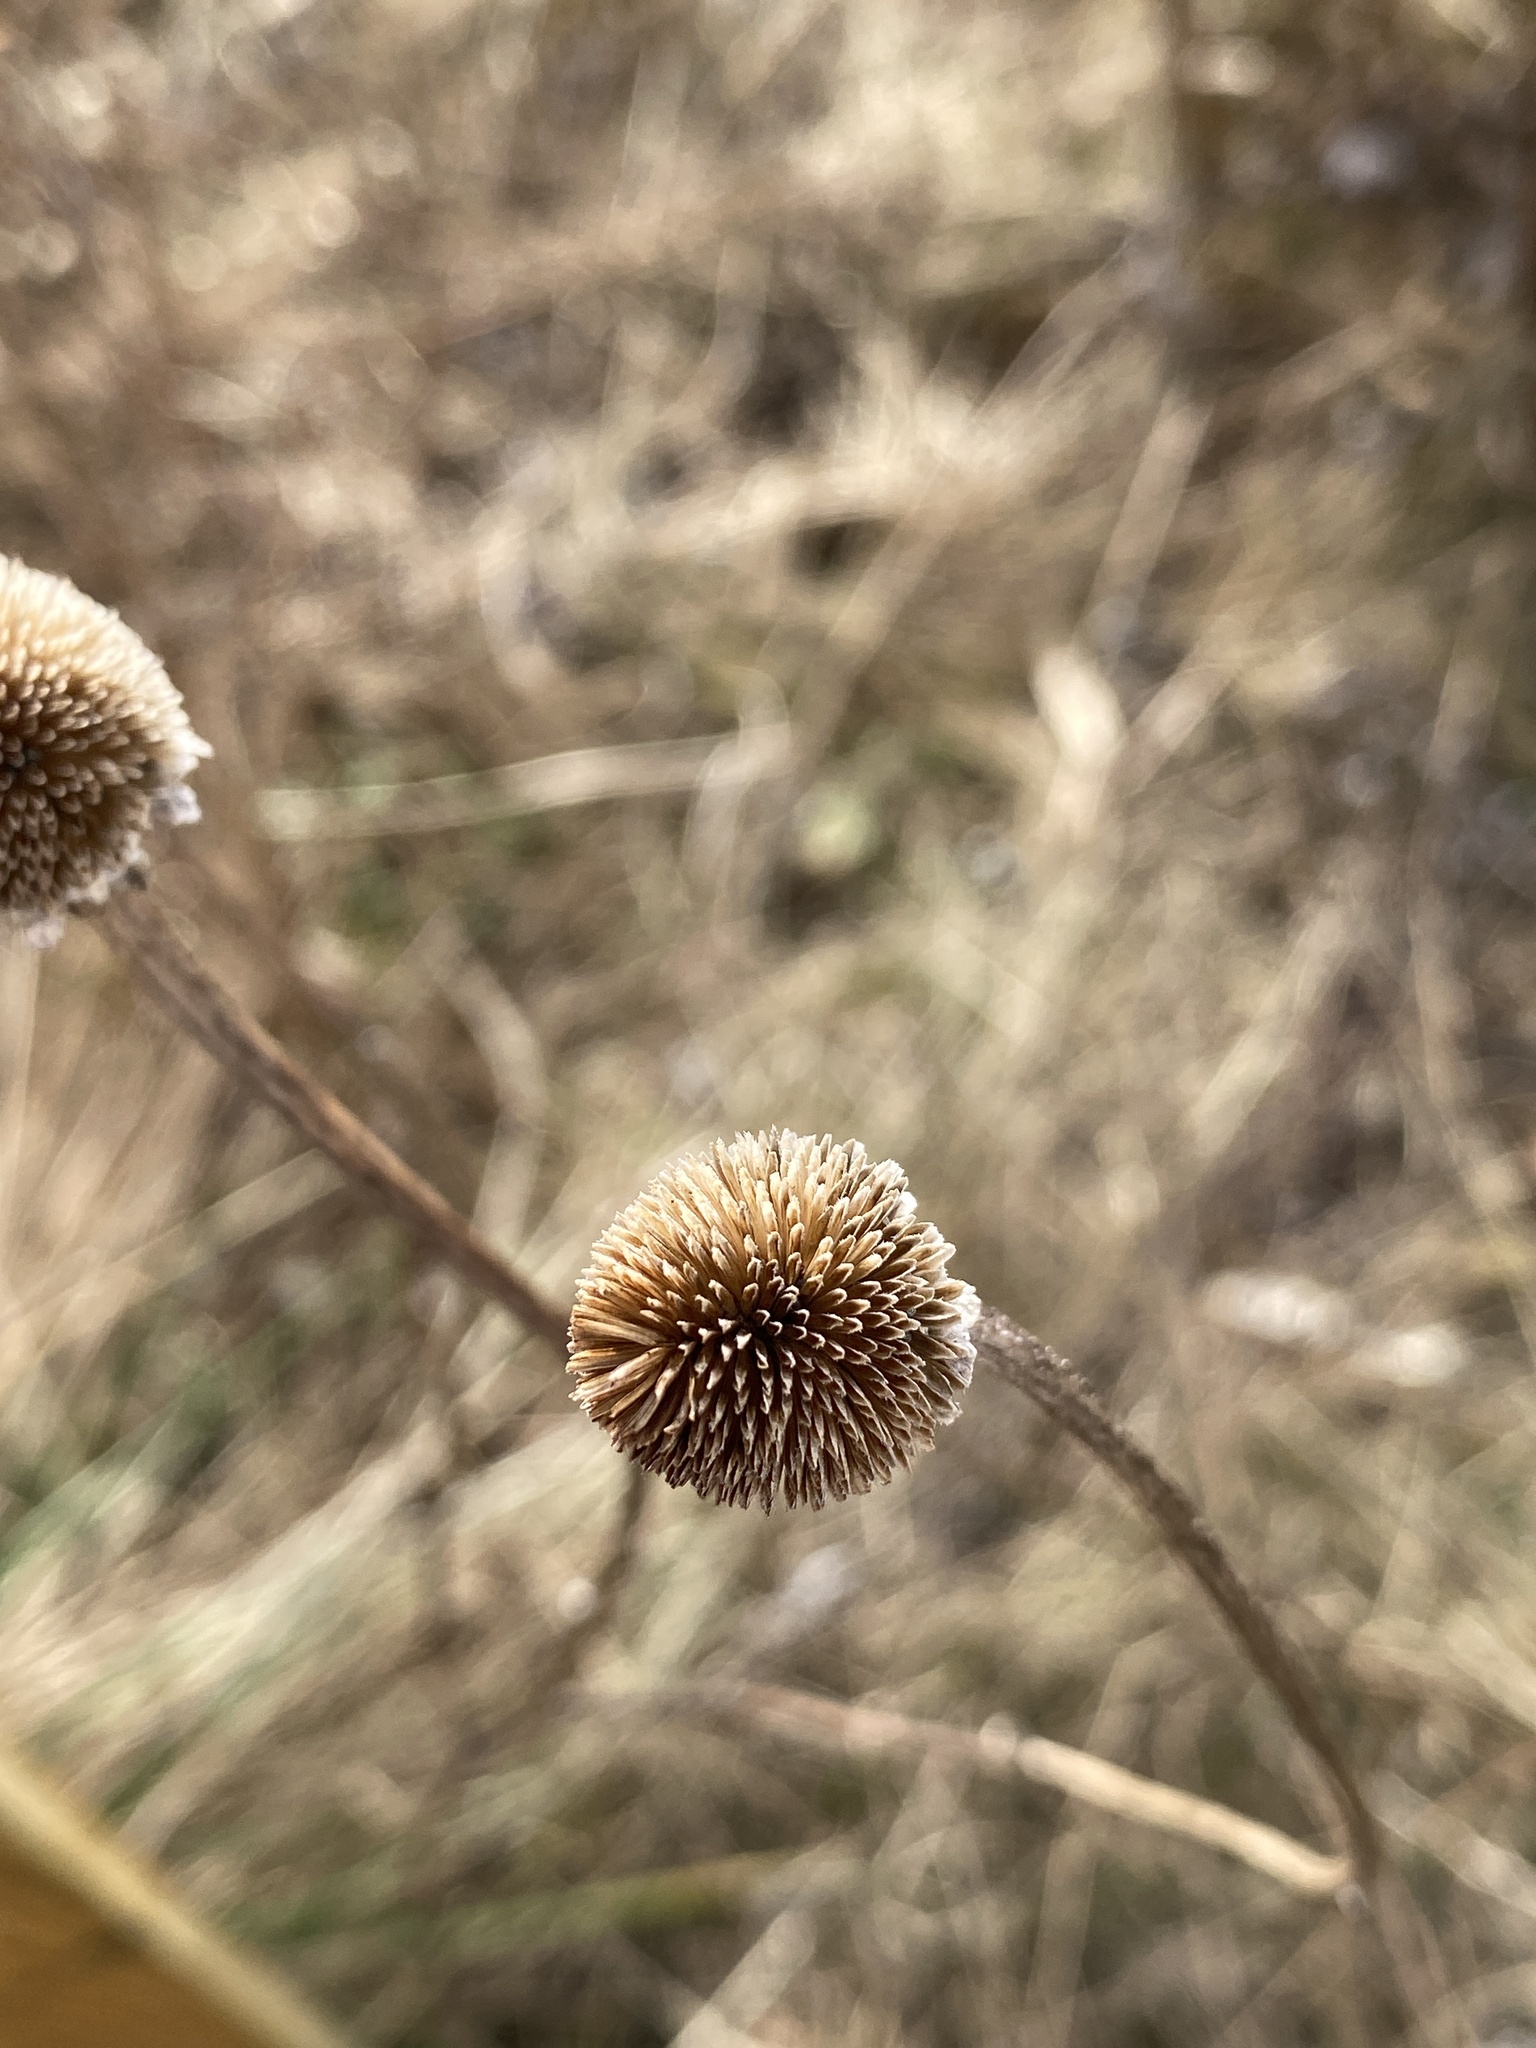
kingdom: Plantae
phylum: Tracheophyta
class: Magnoliopsida
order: Asterales
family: Asteraceae
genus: Rudbeckia
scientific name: Rudbeckia hirta
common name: Black-eyed-susan
